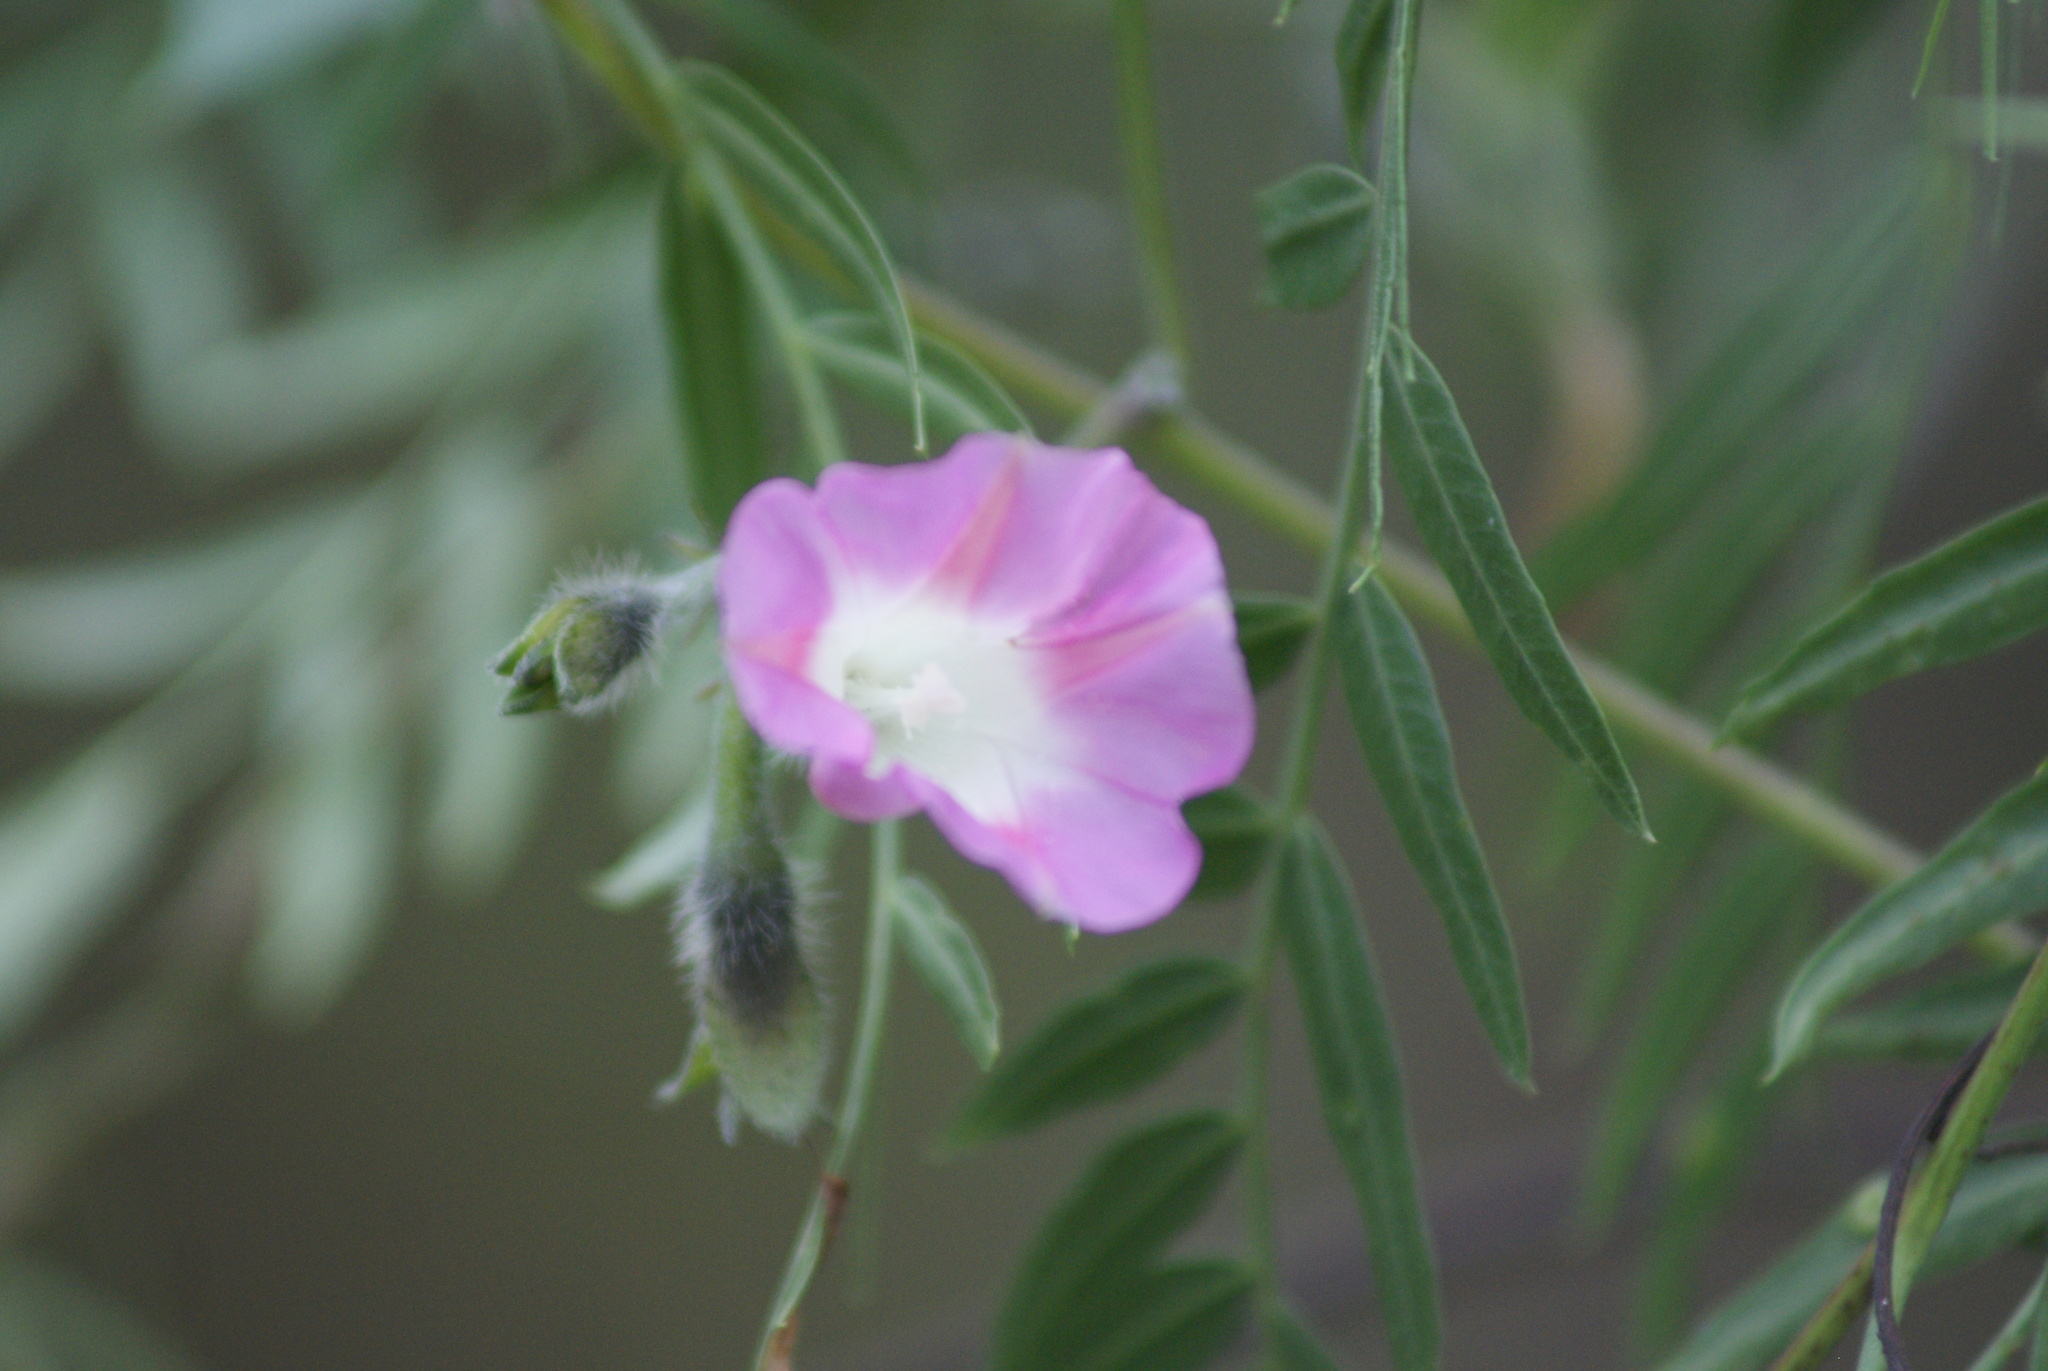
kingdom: Plantae
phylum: Tracheophyta
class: Magnoliopsida
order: Solanales
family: Convolvulaceae
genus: Ipomoea
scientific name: Ipomoea purpurea
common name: Common morning-glory
